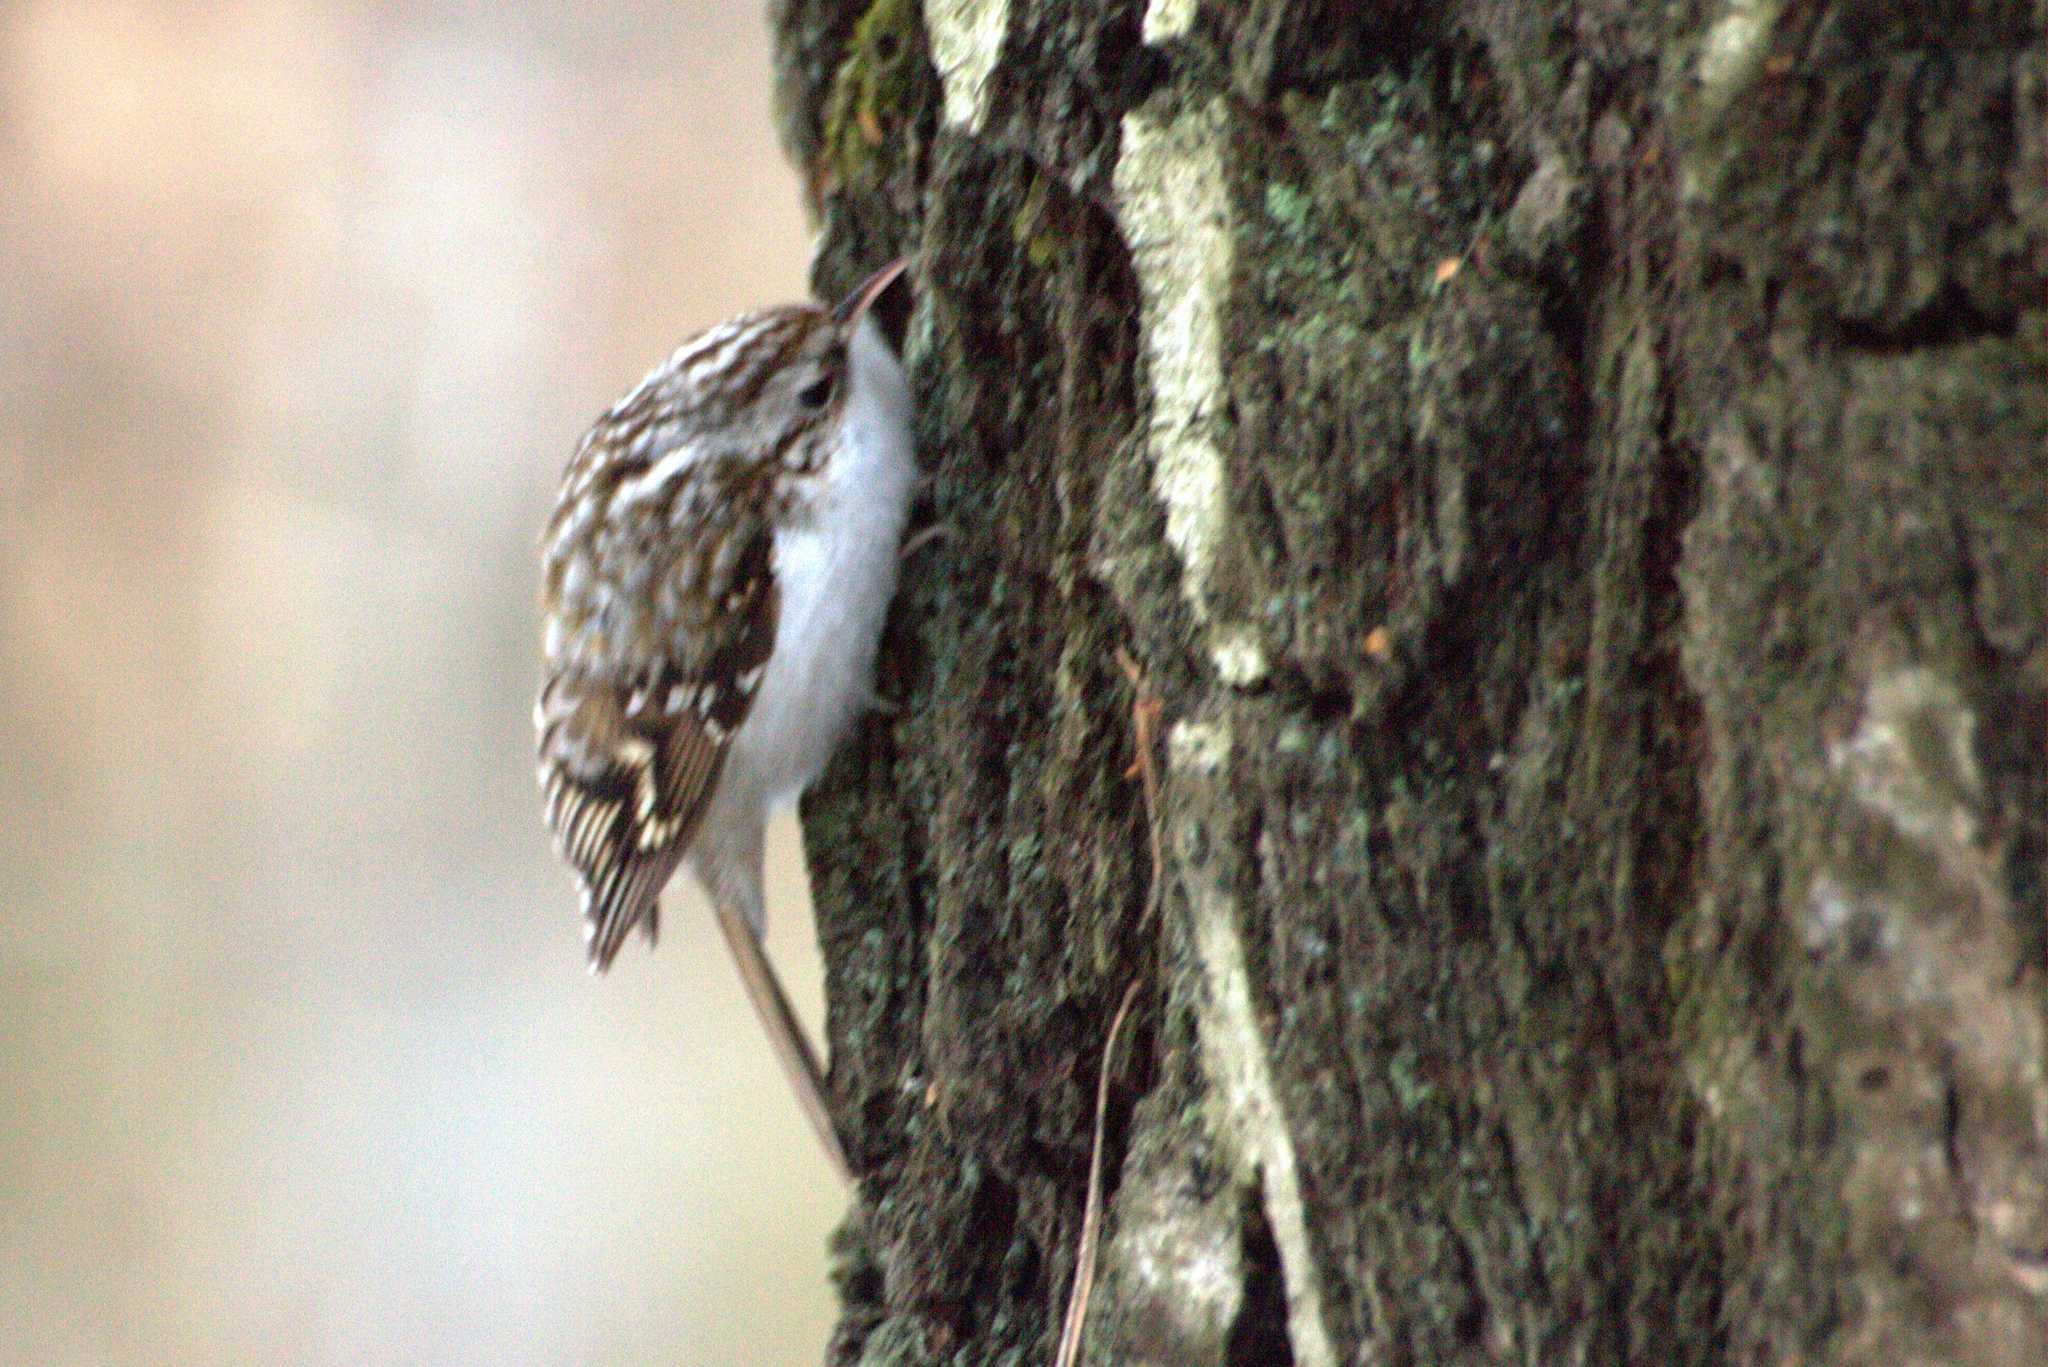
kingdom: Animalia
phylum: Chordata
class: Aves
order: Passeriformes
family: Certhiidae
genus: Certhia
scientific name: Certhia familiaris
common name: Eurasian treecreeper
